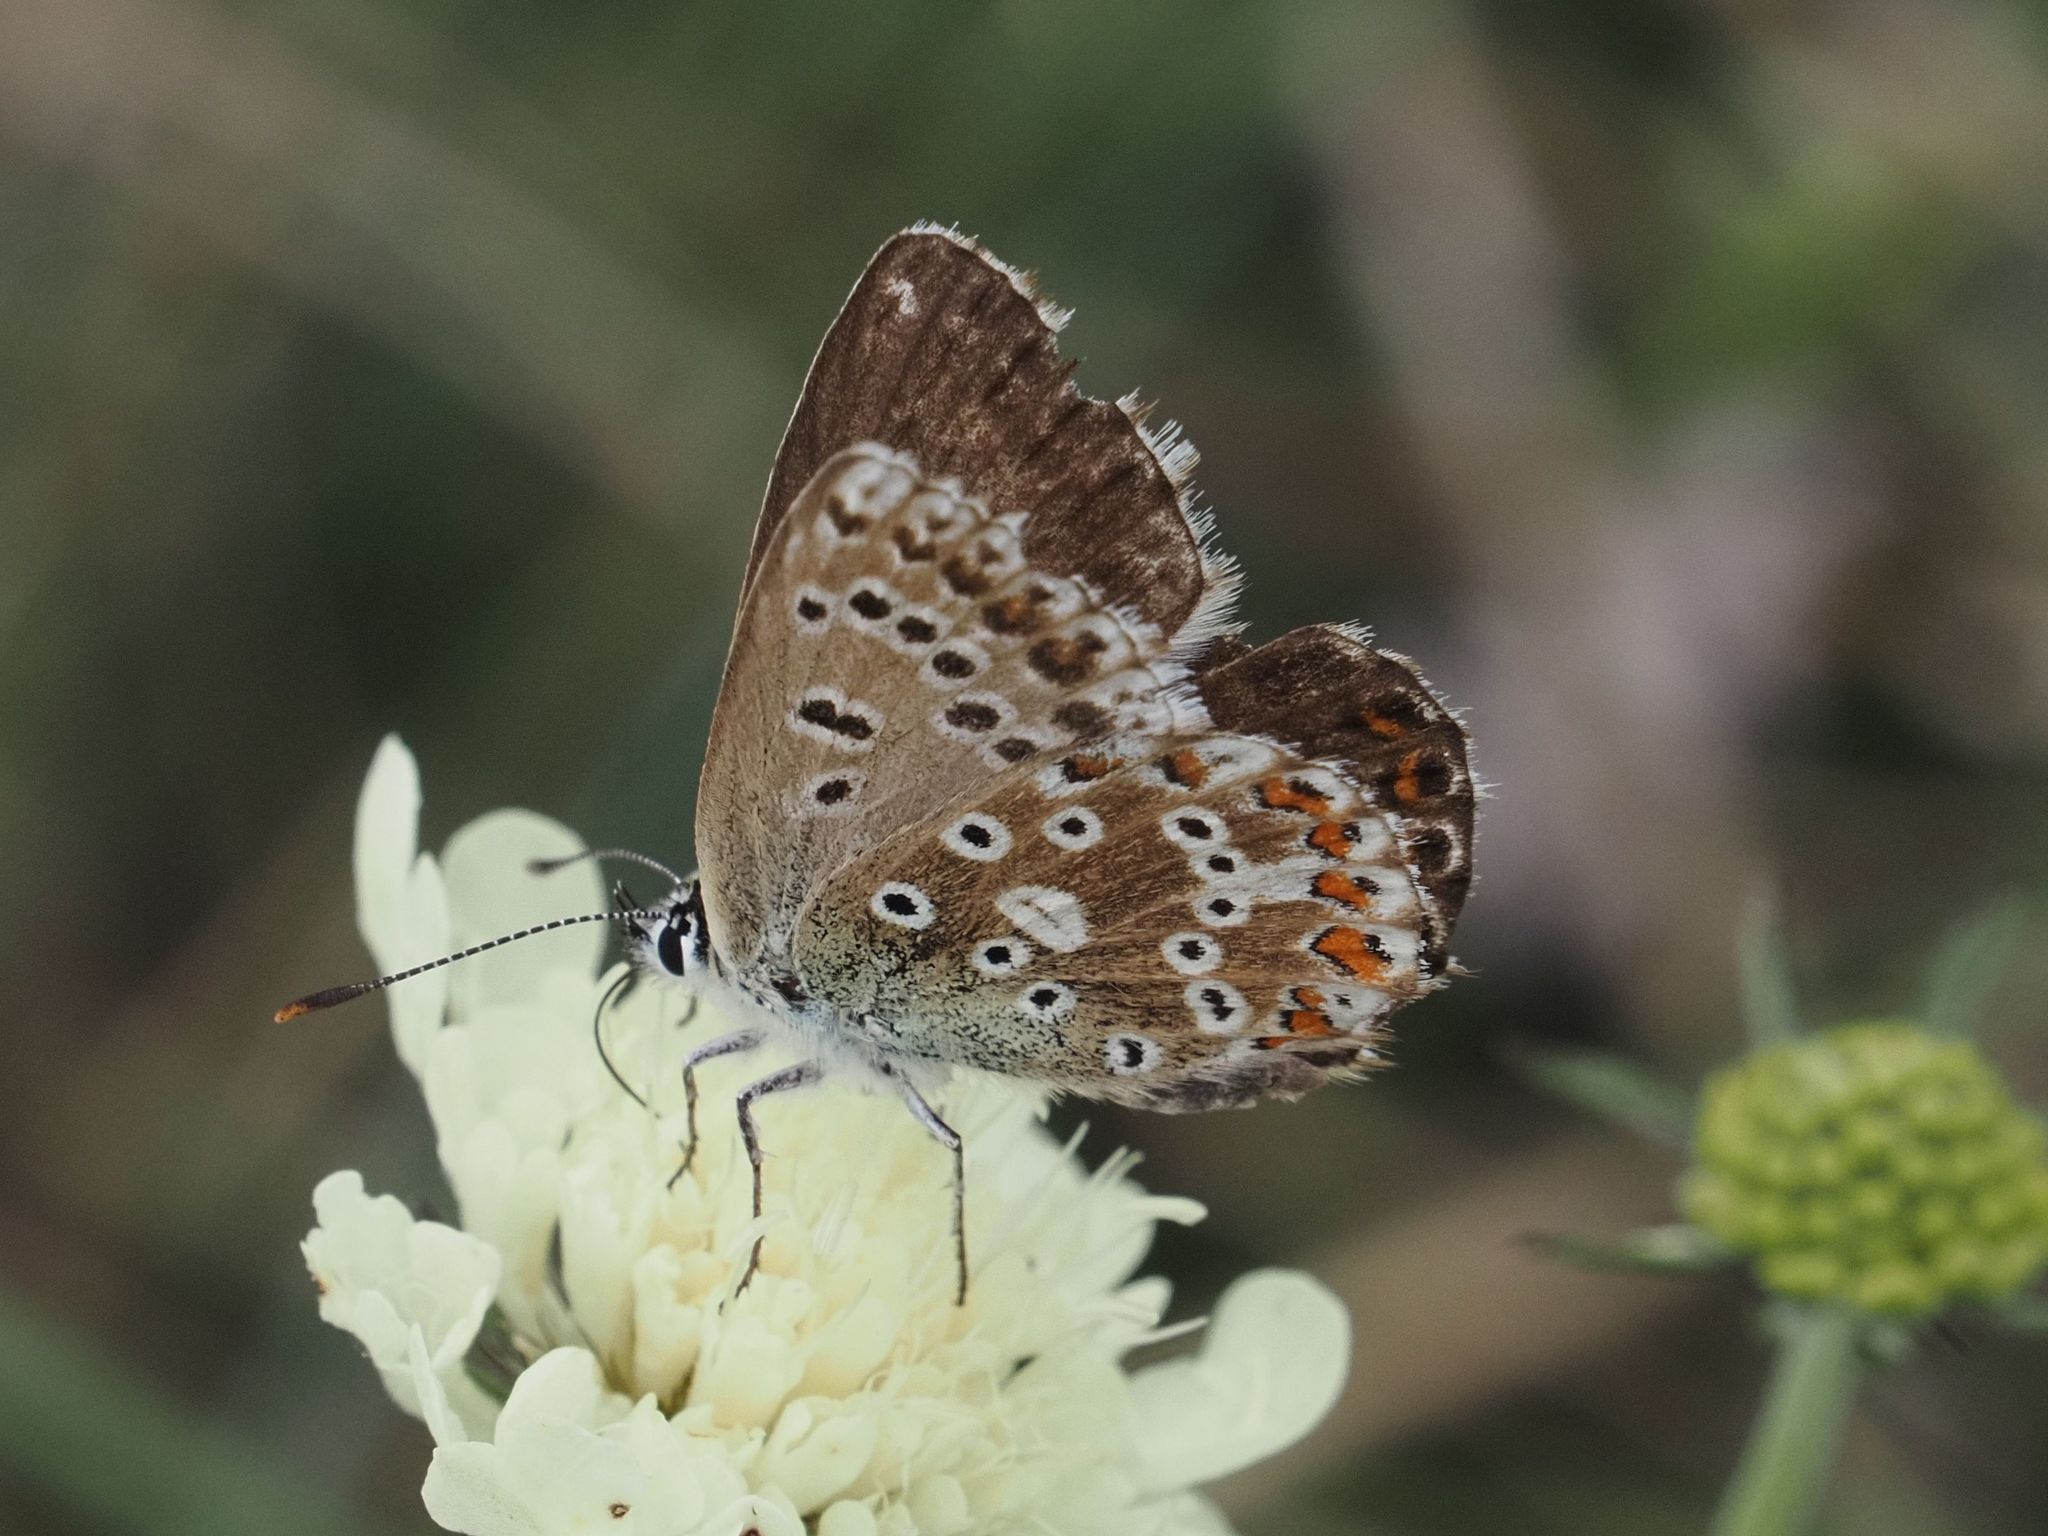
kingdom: Animalia
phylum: Arthropoda
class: Insecta
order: Lepidoptera
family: Lycaenidae
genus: Lysandra
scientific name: Lysandra coridon
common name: Chalkhill blue
